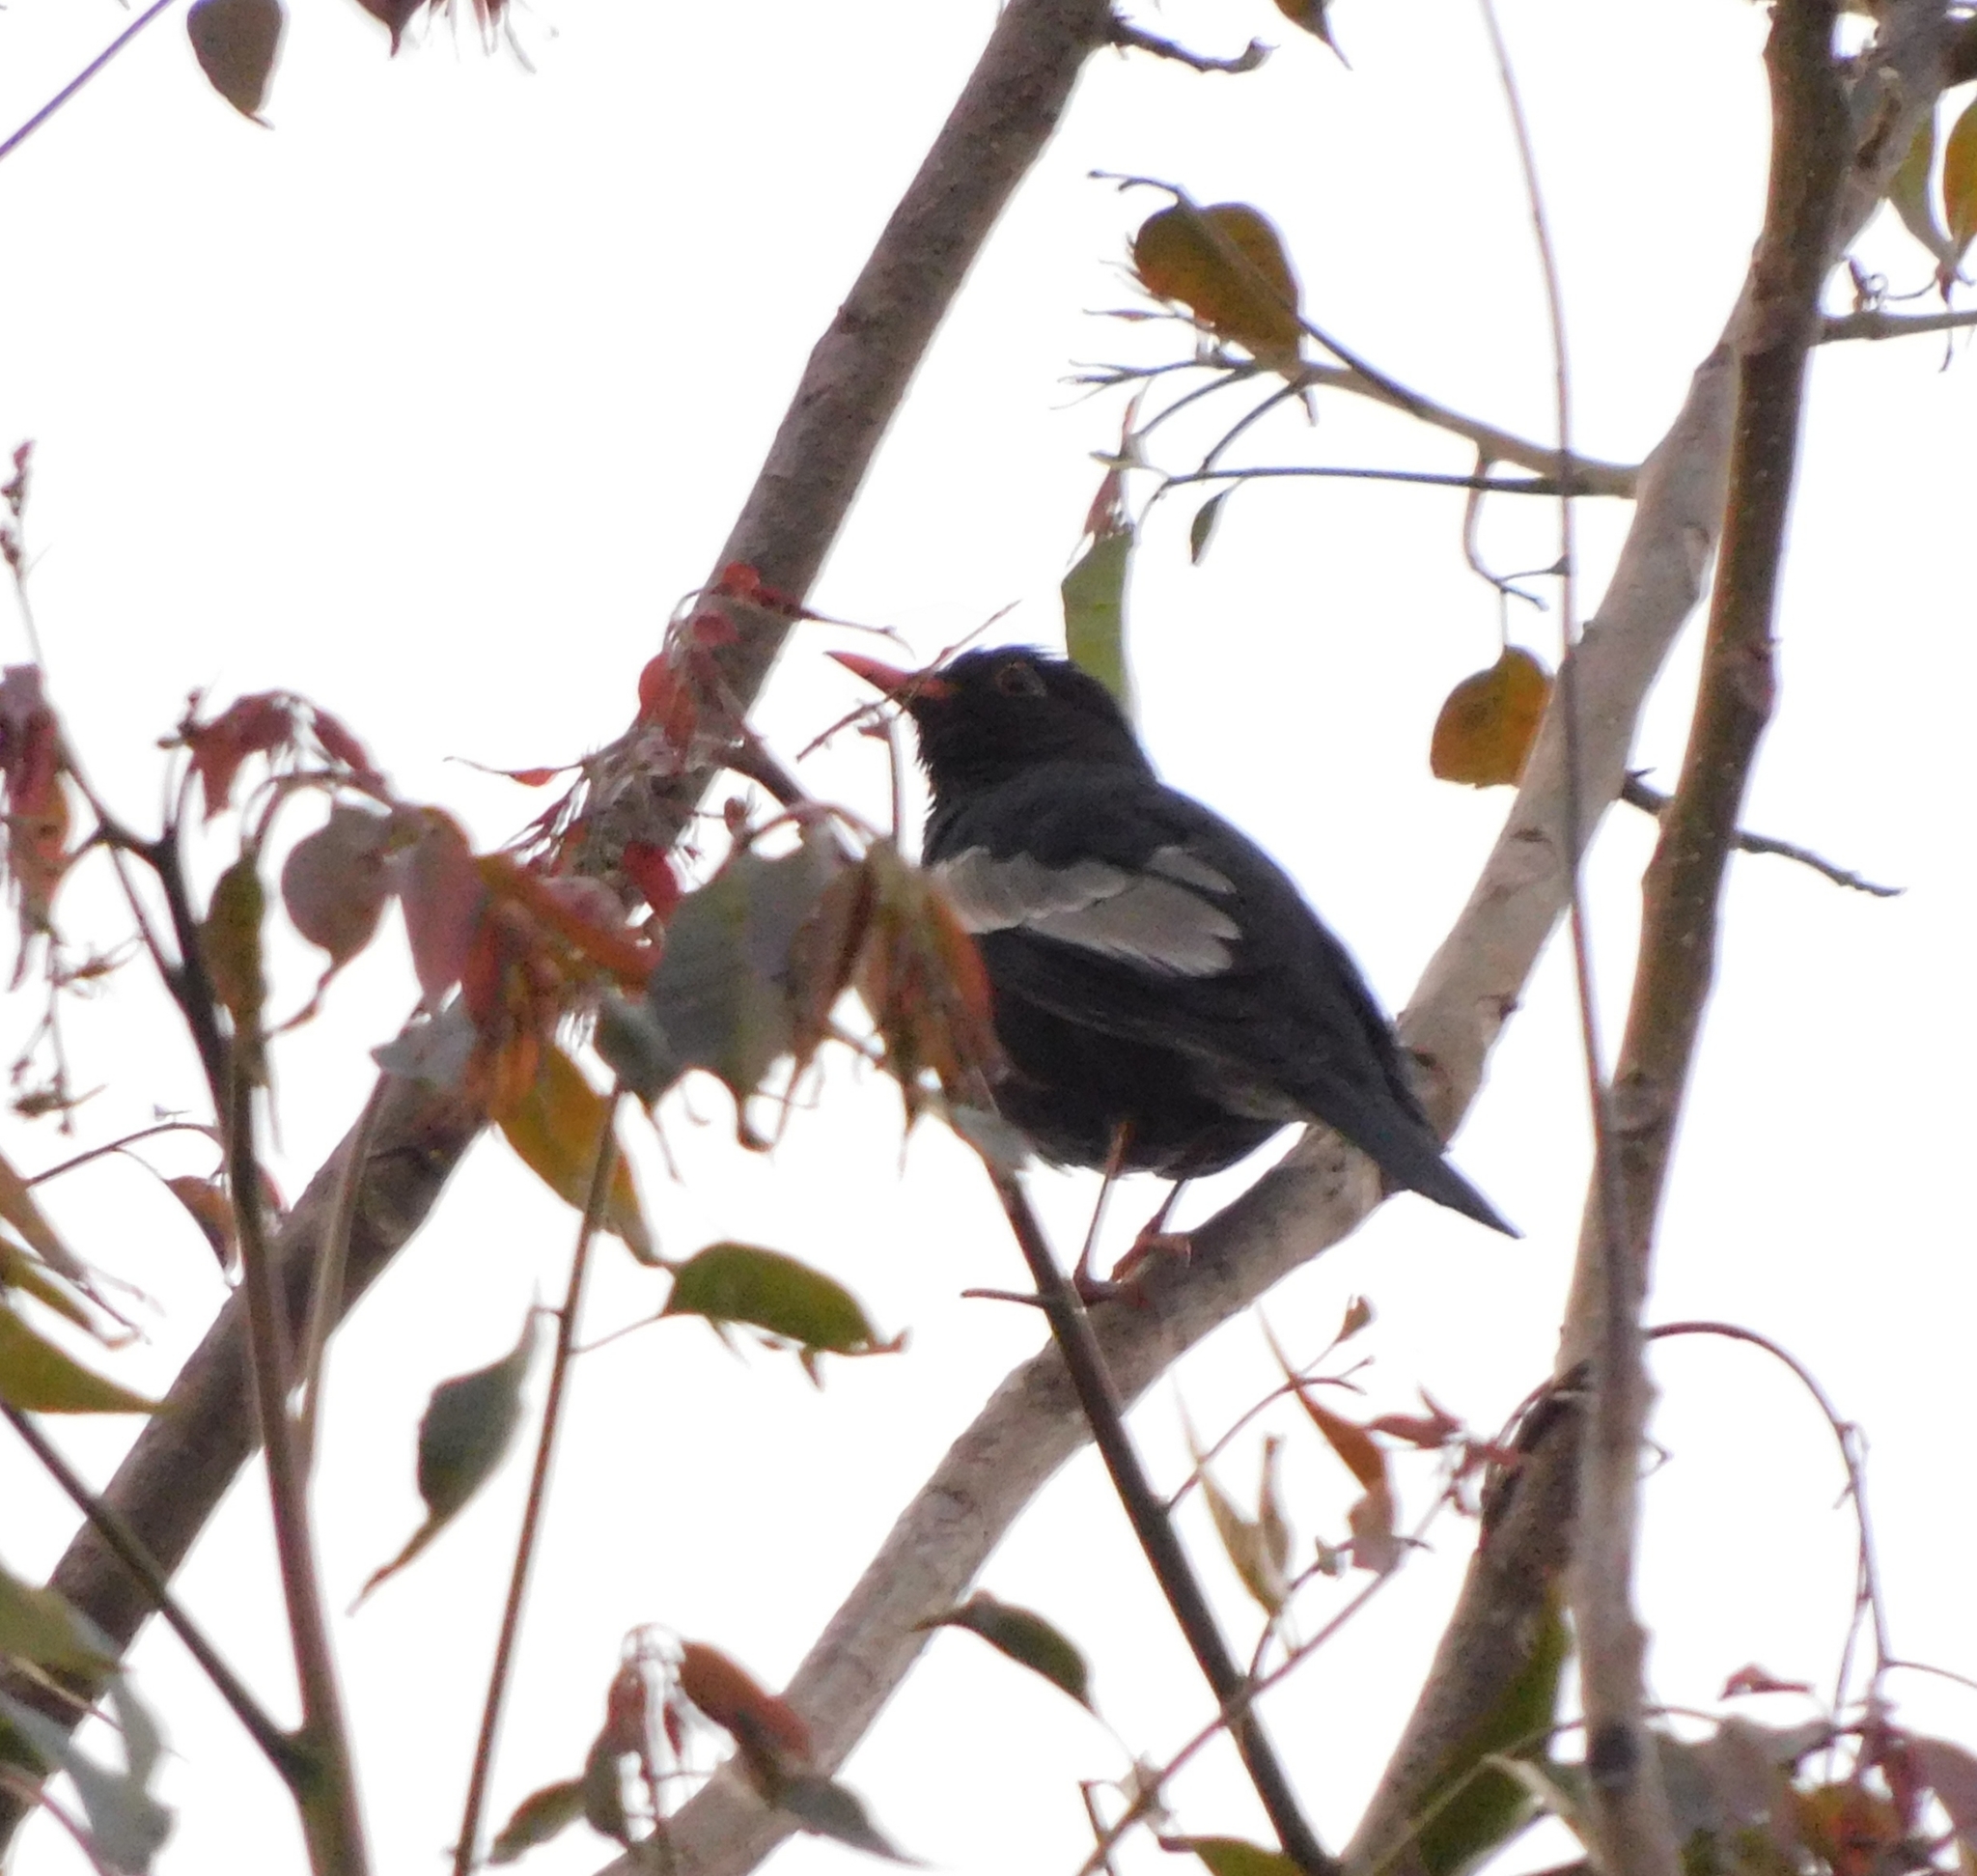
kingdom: Animalia
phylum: Chordata
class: Aves
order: Passeriformes
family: Turdidae
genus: Turdus
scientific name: Turdus boulboul
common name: Grey-winged blackbird
